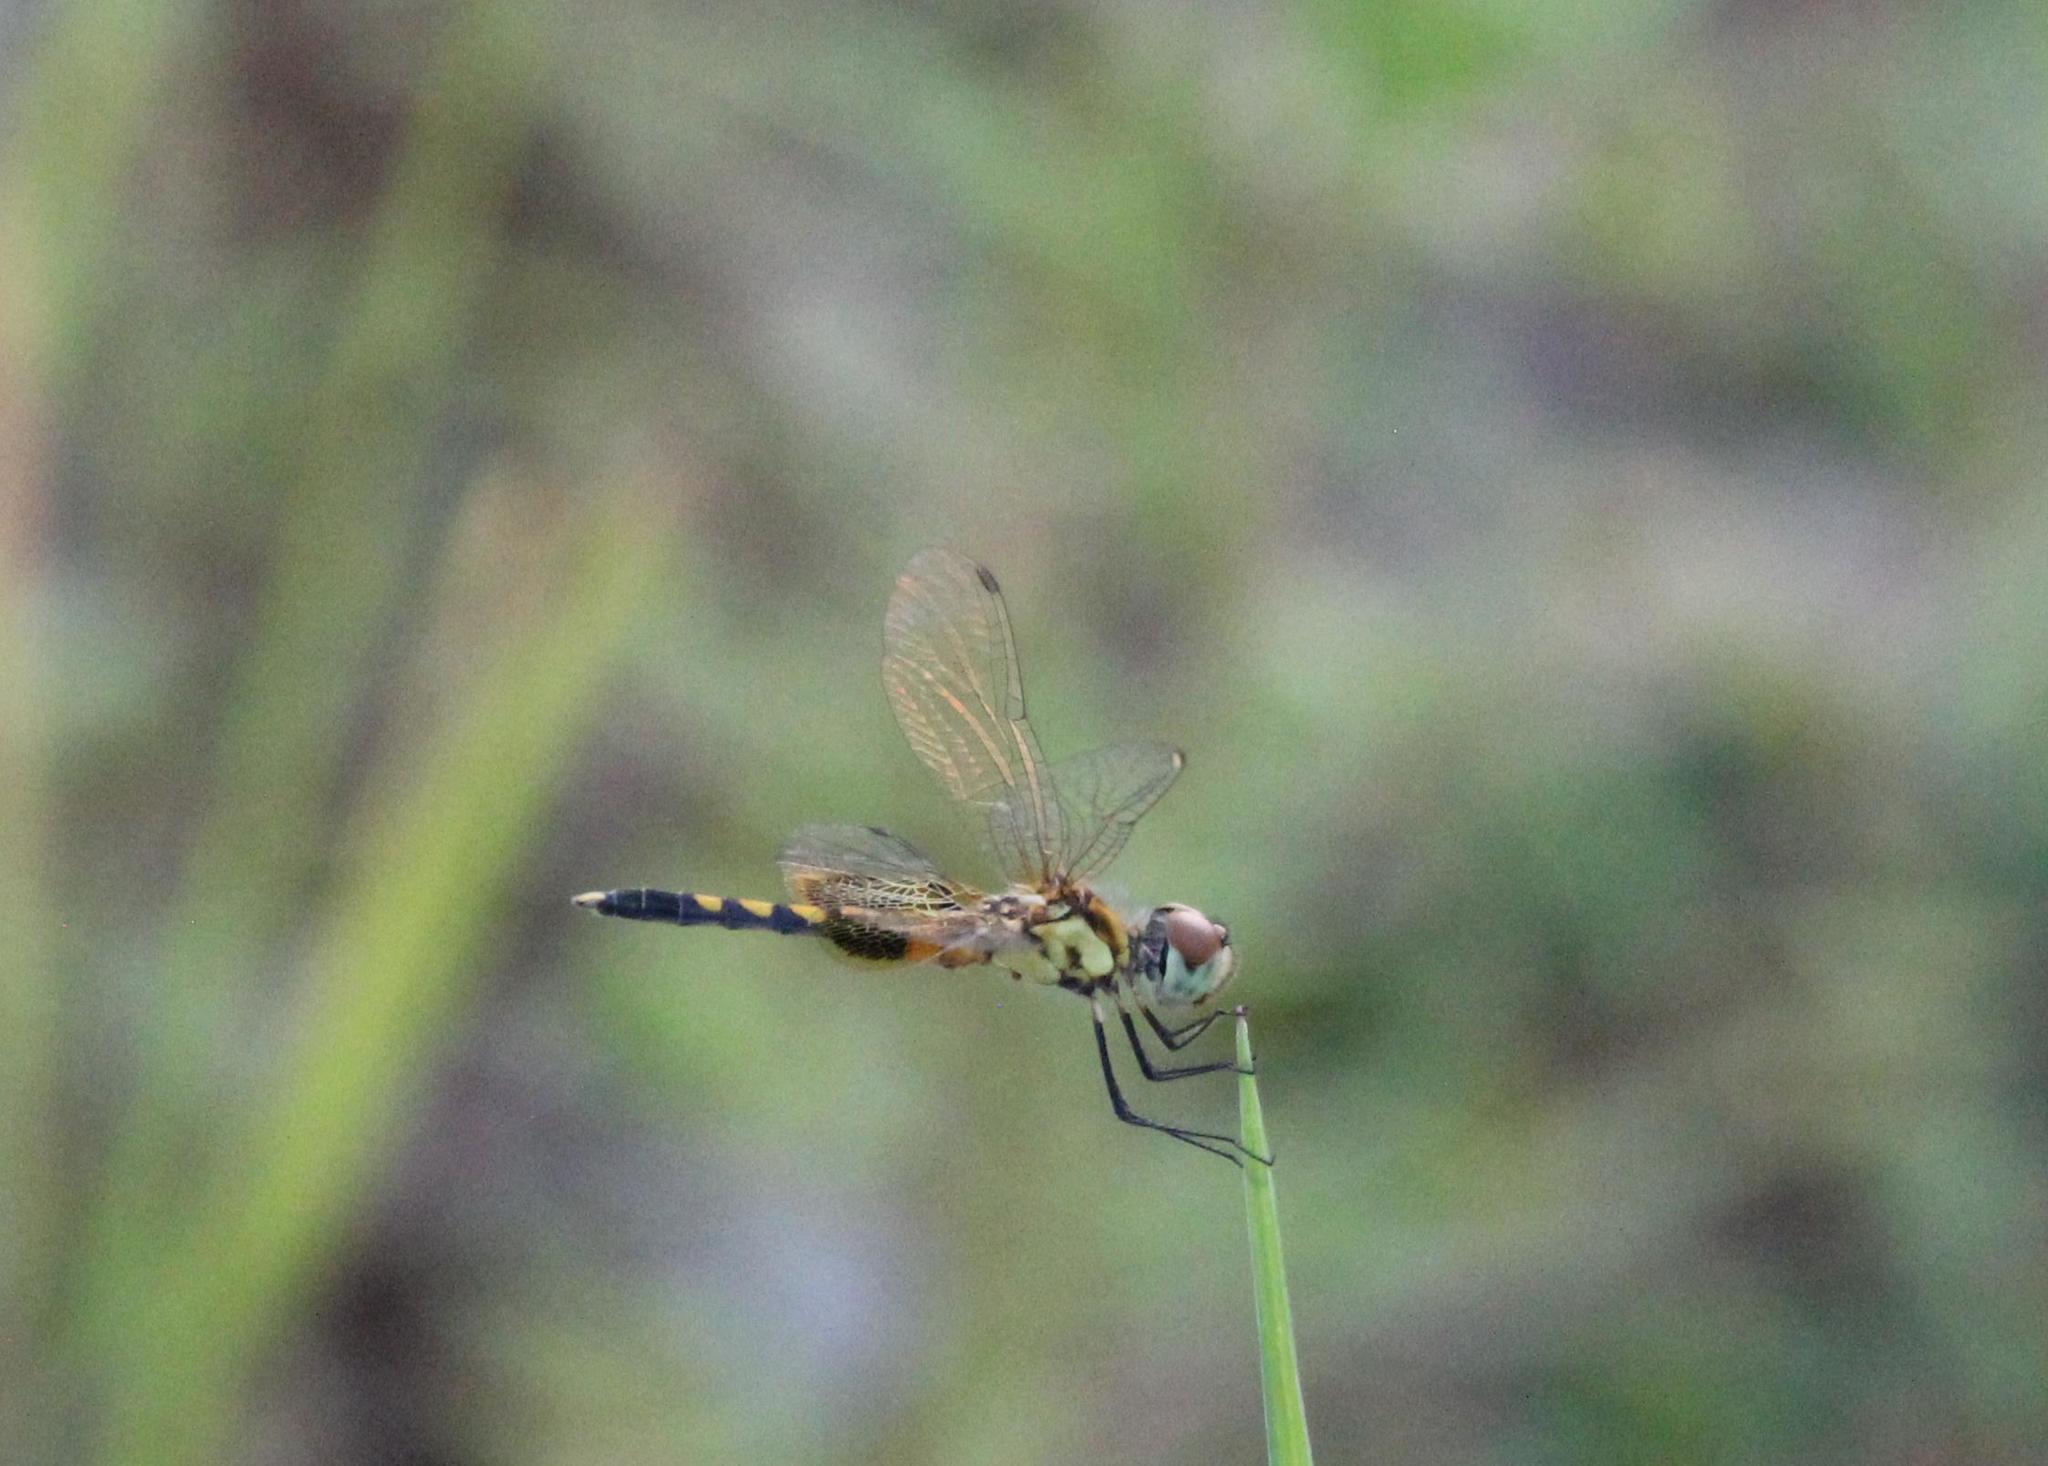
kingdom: Animalia
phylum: Arthropoda
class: Insecta
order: Odonata
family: Libellulidae
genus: Celithemis
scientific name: Celithemis amanda
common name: Amanda's pennant
